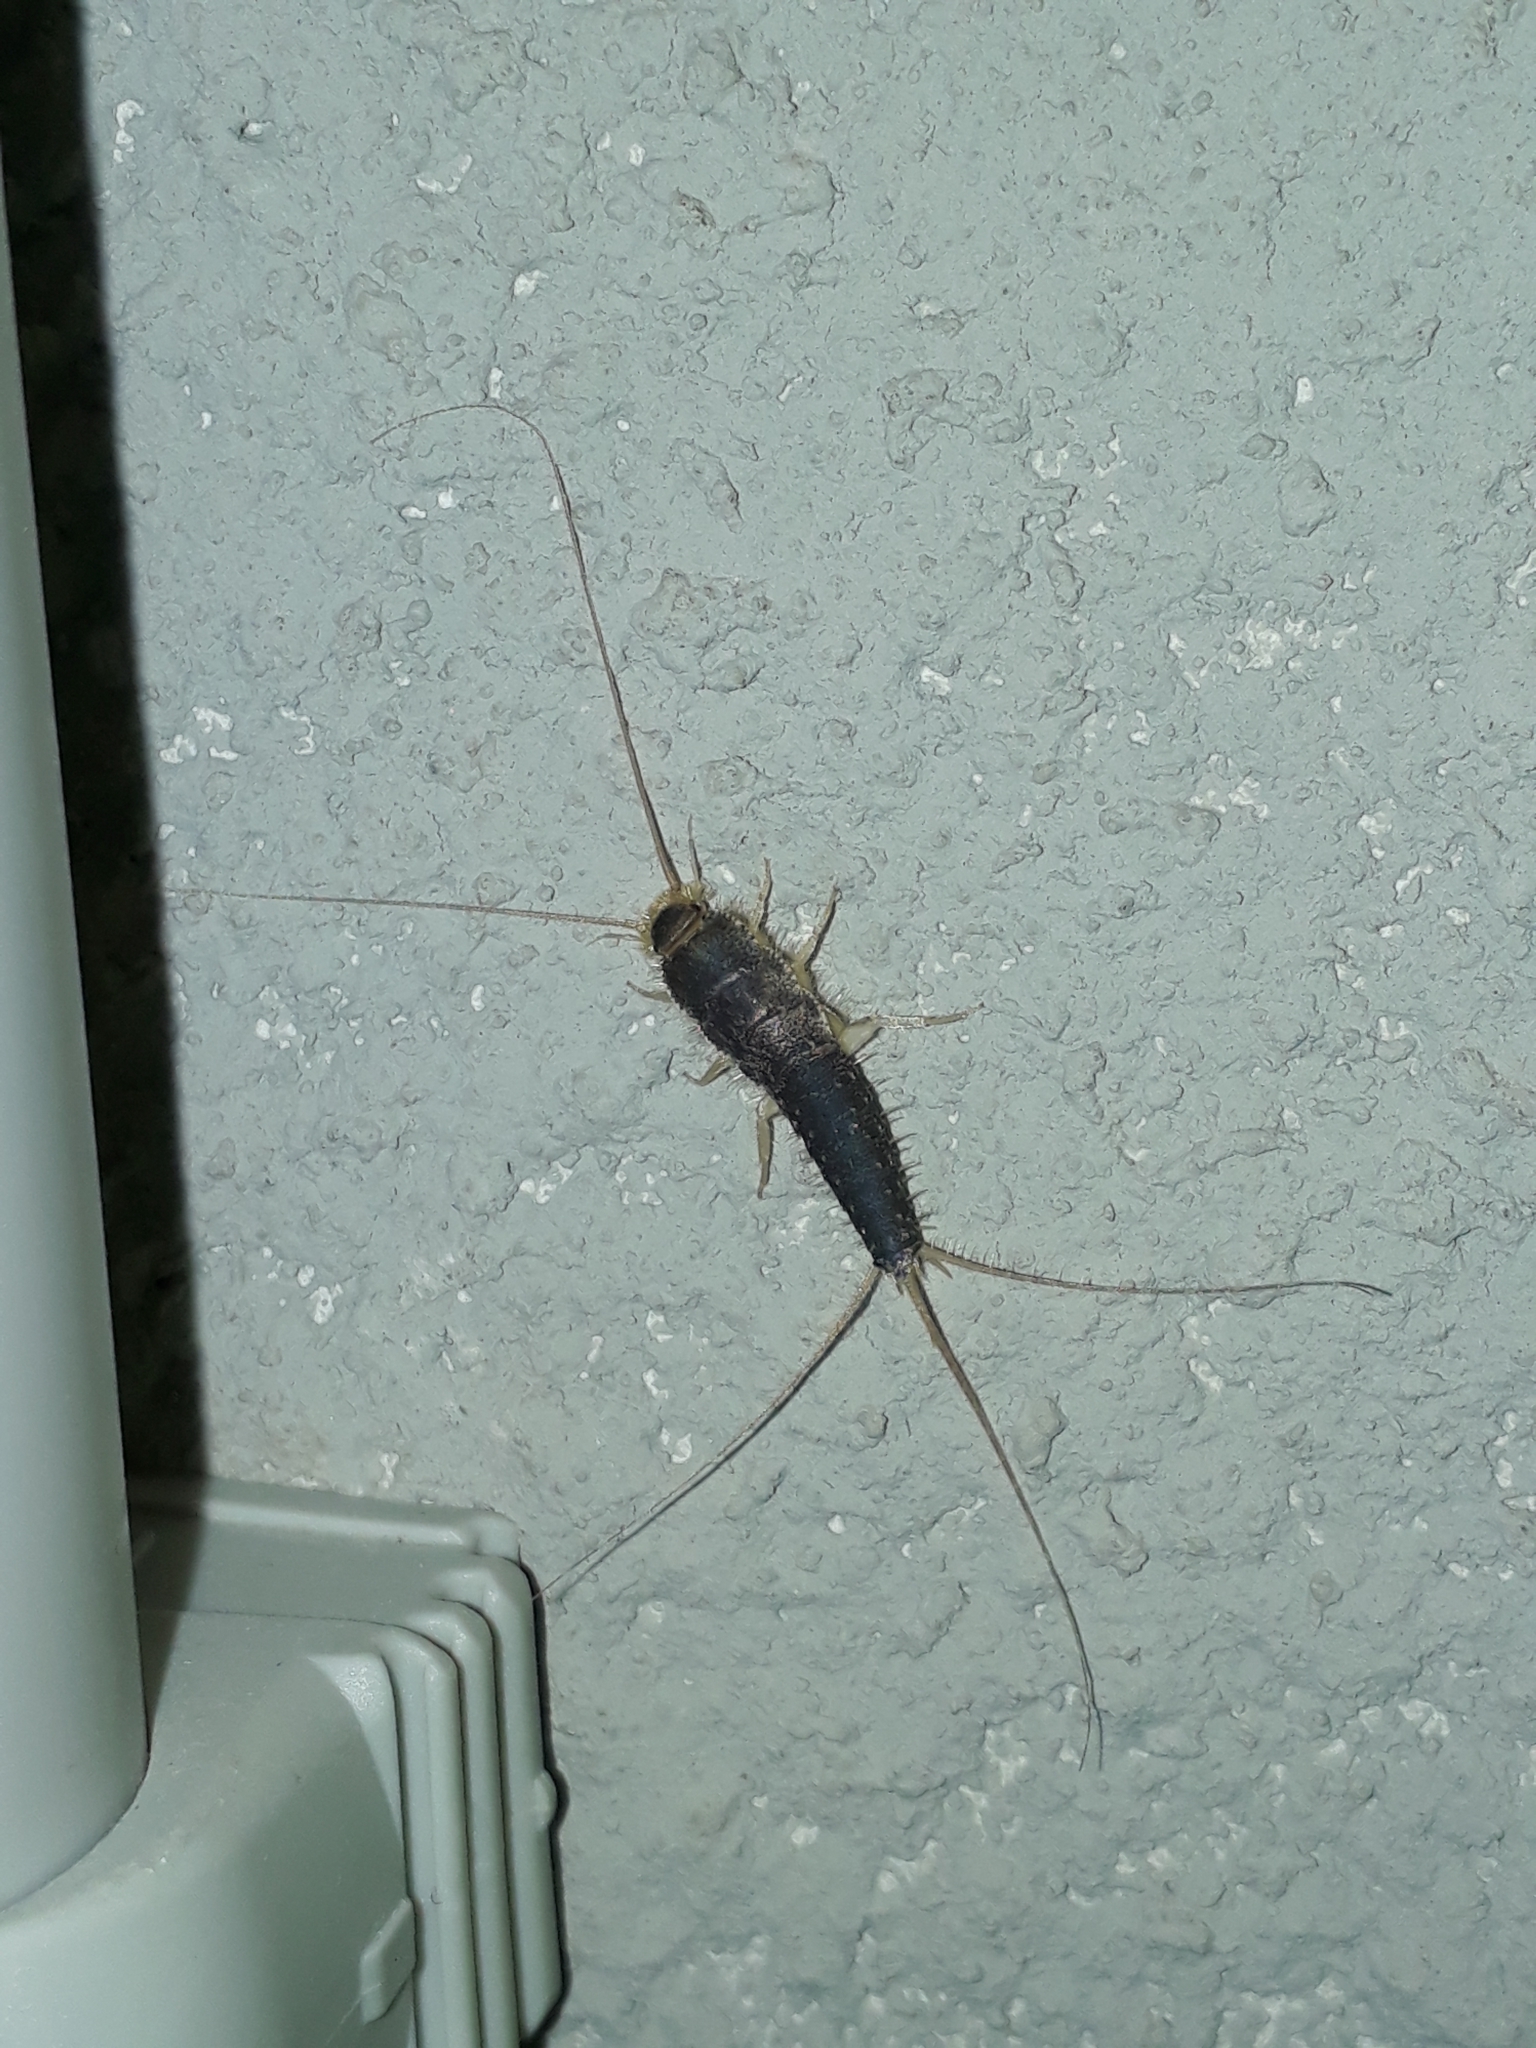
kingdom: Animalia
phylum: Arthropoda
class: Insecta
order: Zygentoma
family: Lepismatidae
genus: Ctenolepisma
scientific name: Ctenolepisma longicaudatum
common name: Silverfish
